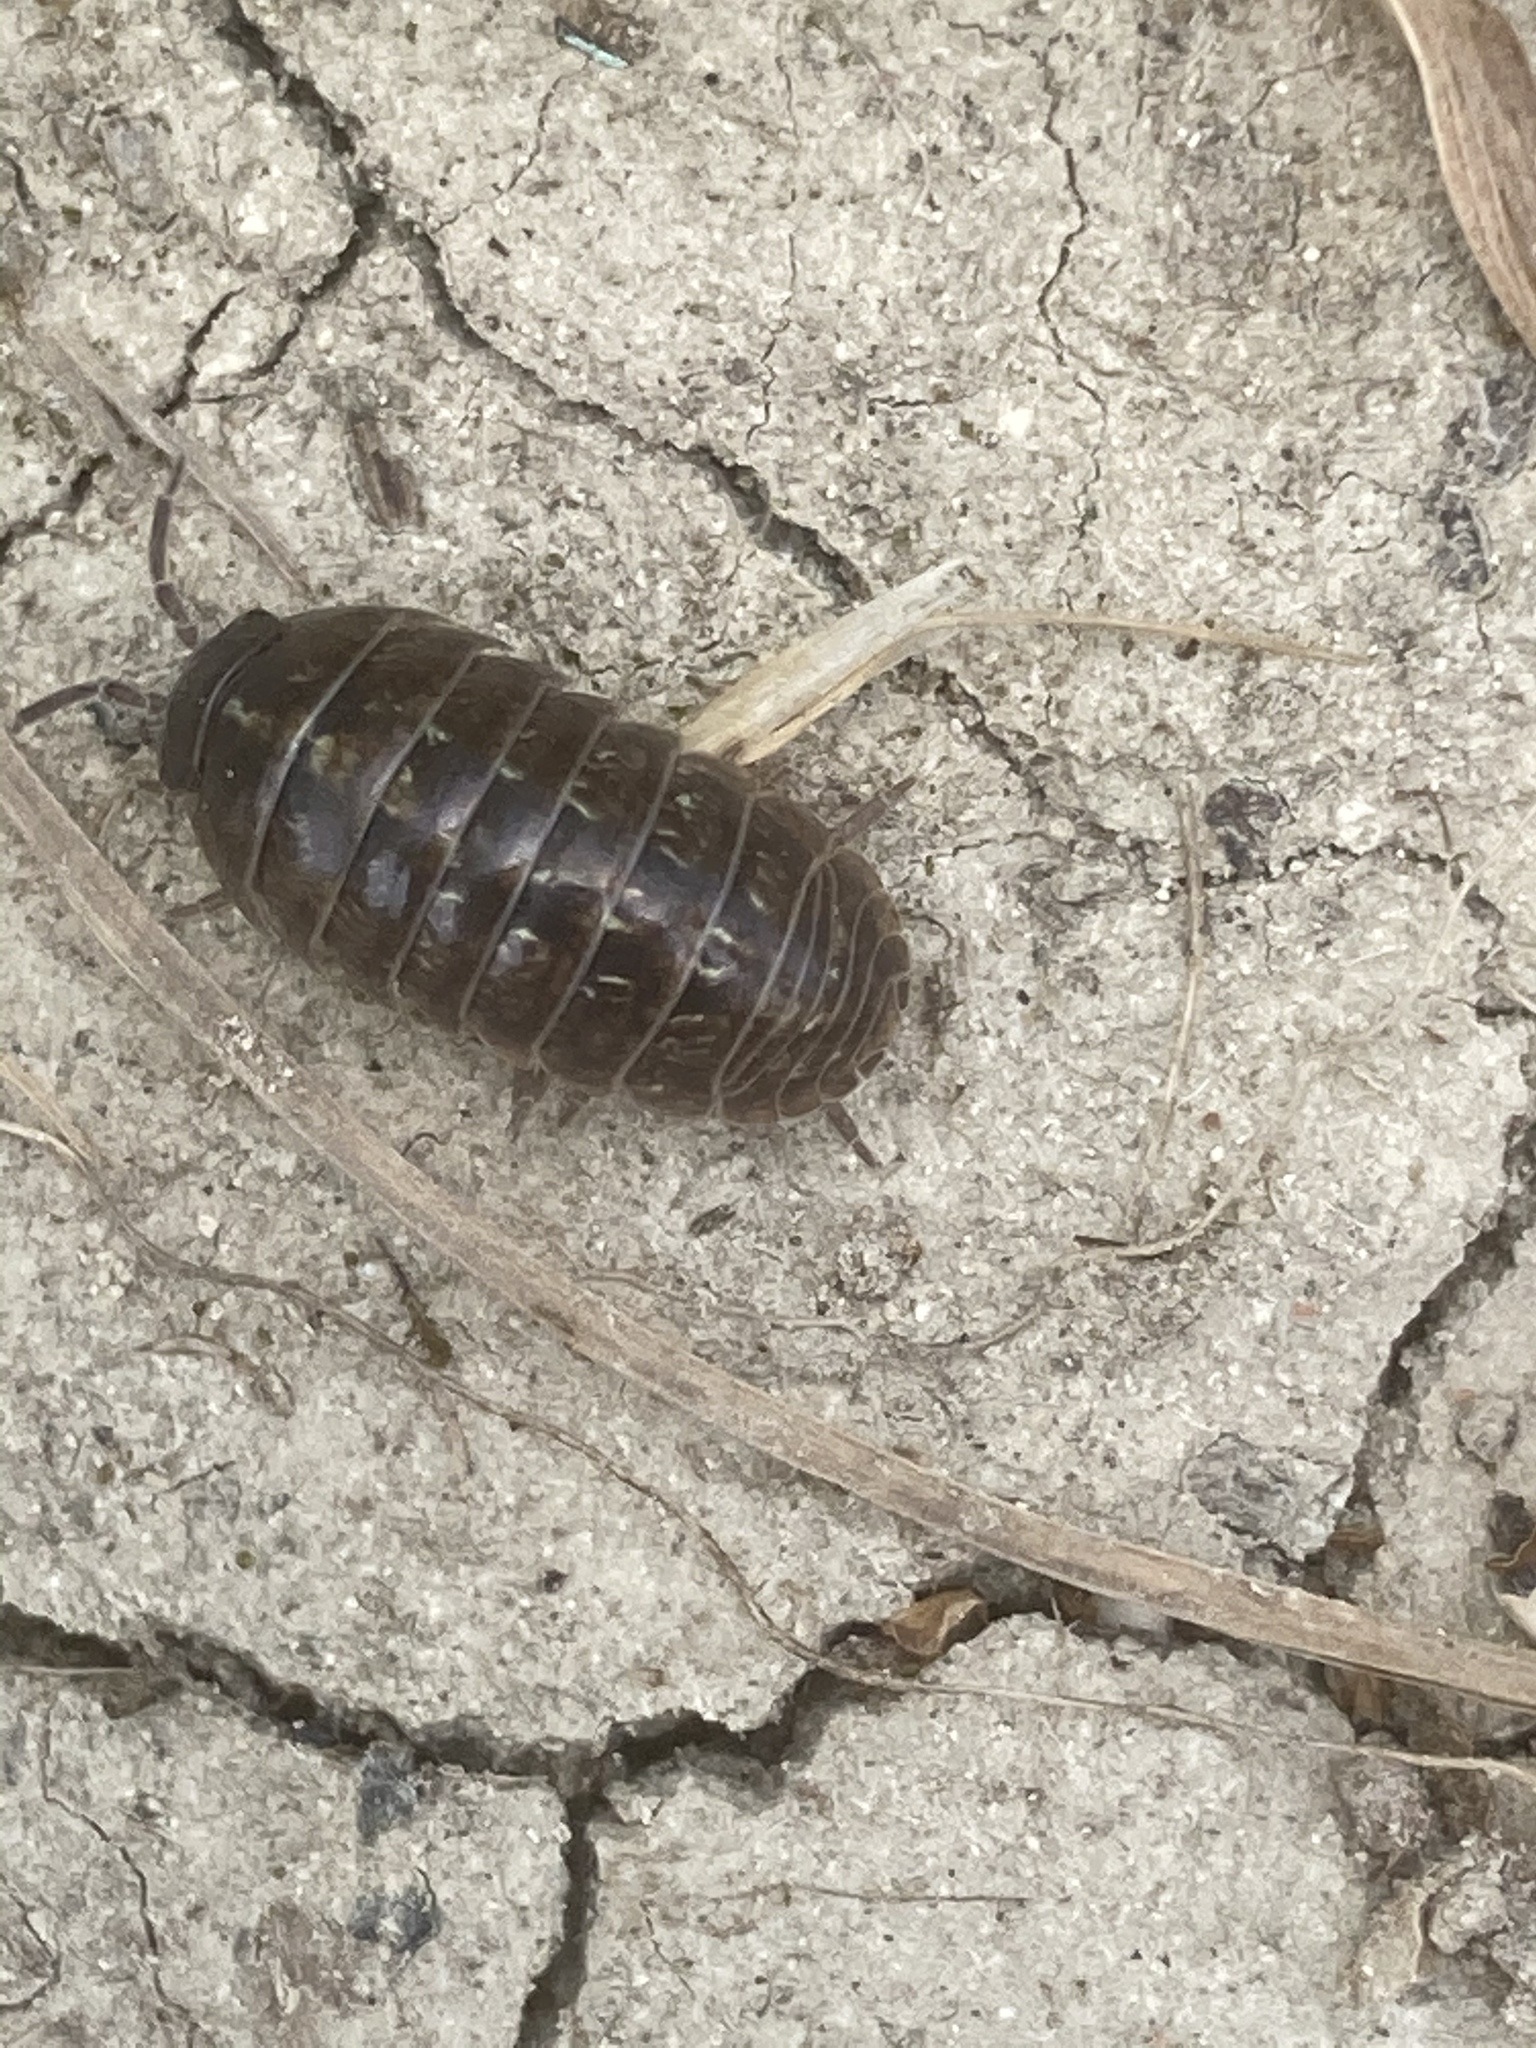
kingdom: Animalia
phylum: Arthropoda
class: Malacostraca
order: Isopoda
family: Armadillidiidae
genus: Armadillidium
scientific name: Armadillidium vulgare
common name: Common pill woodlouse
